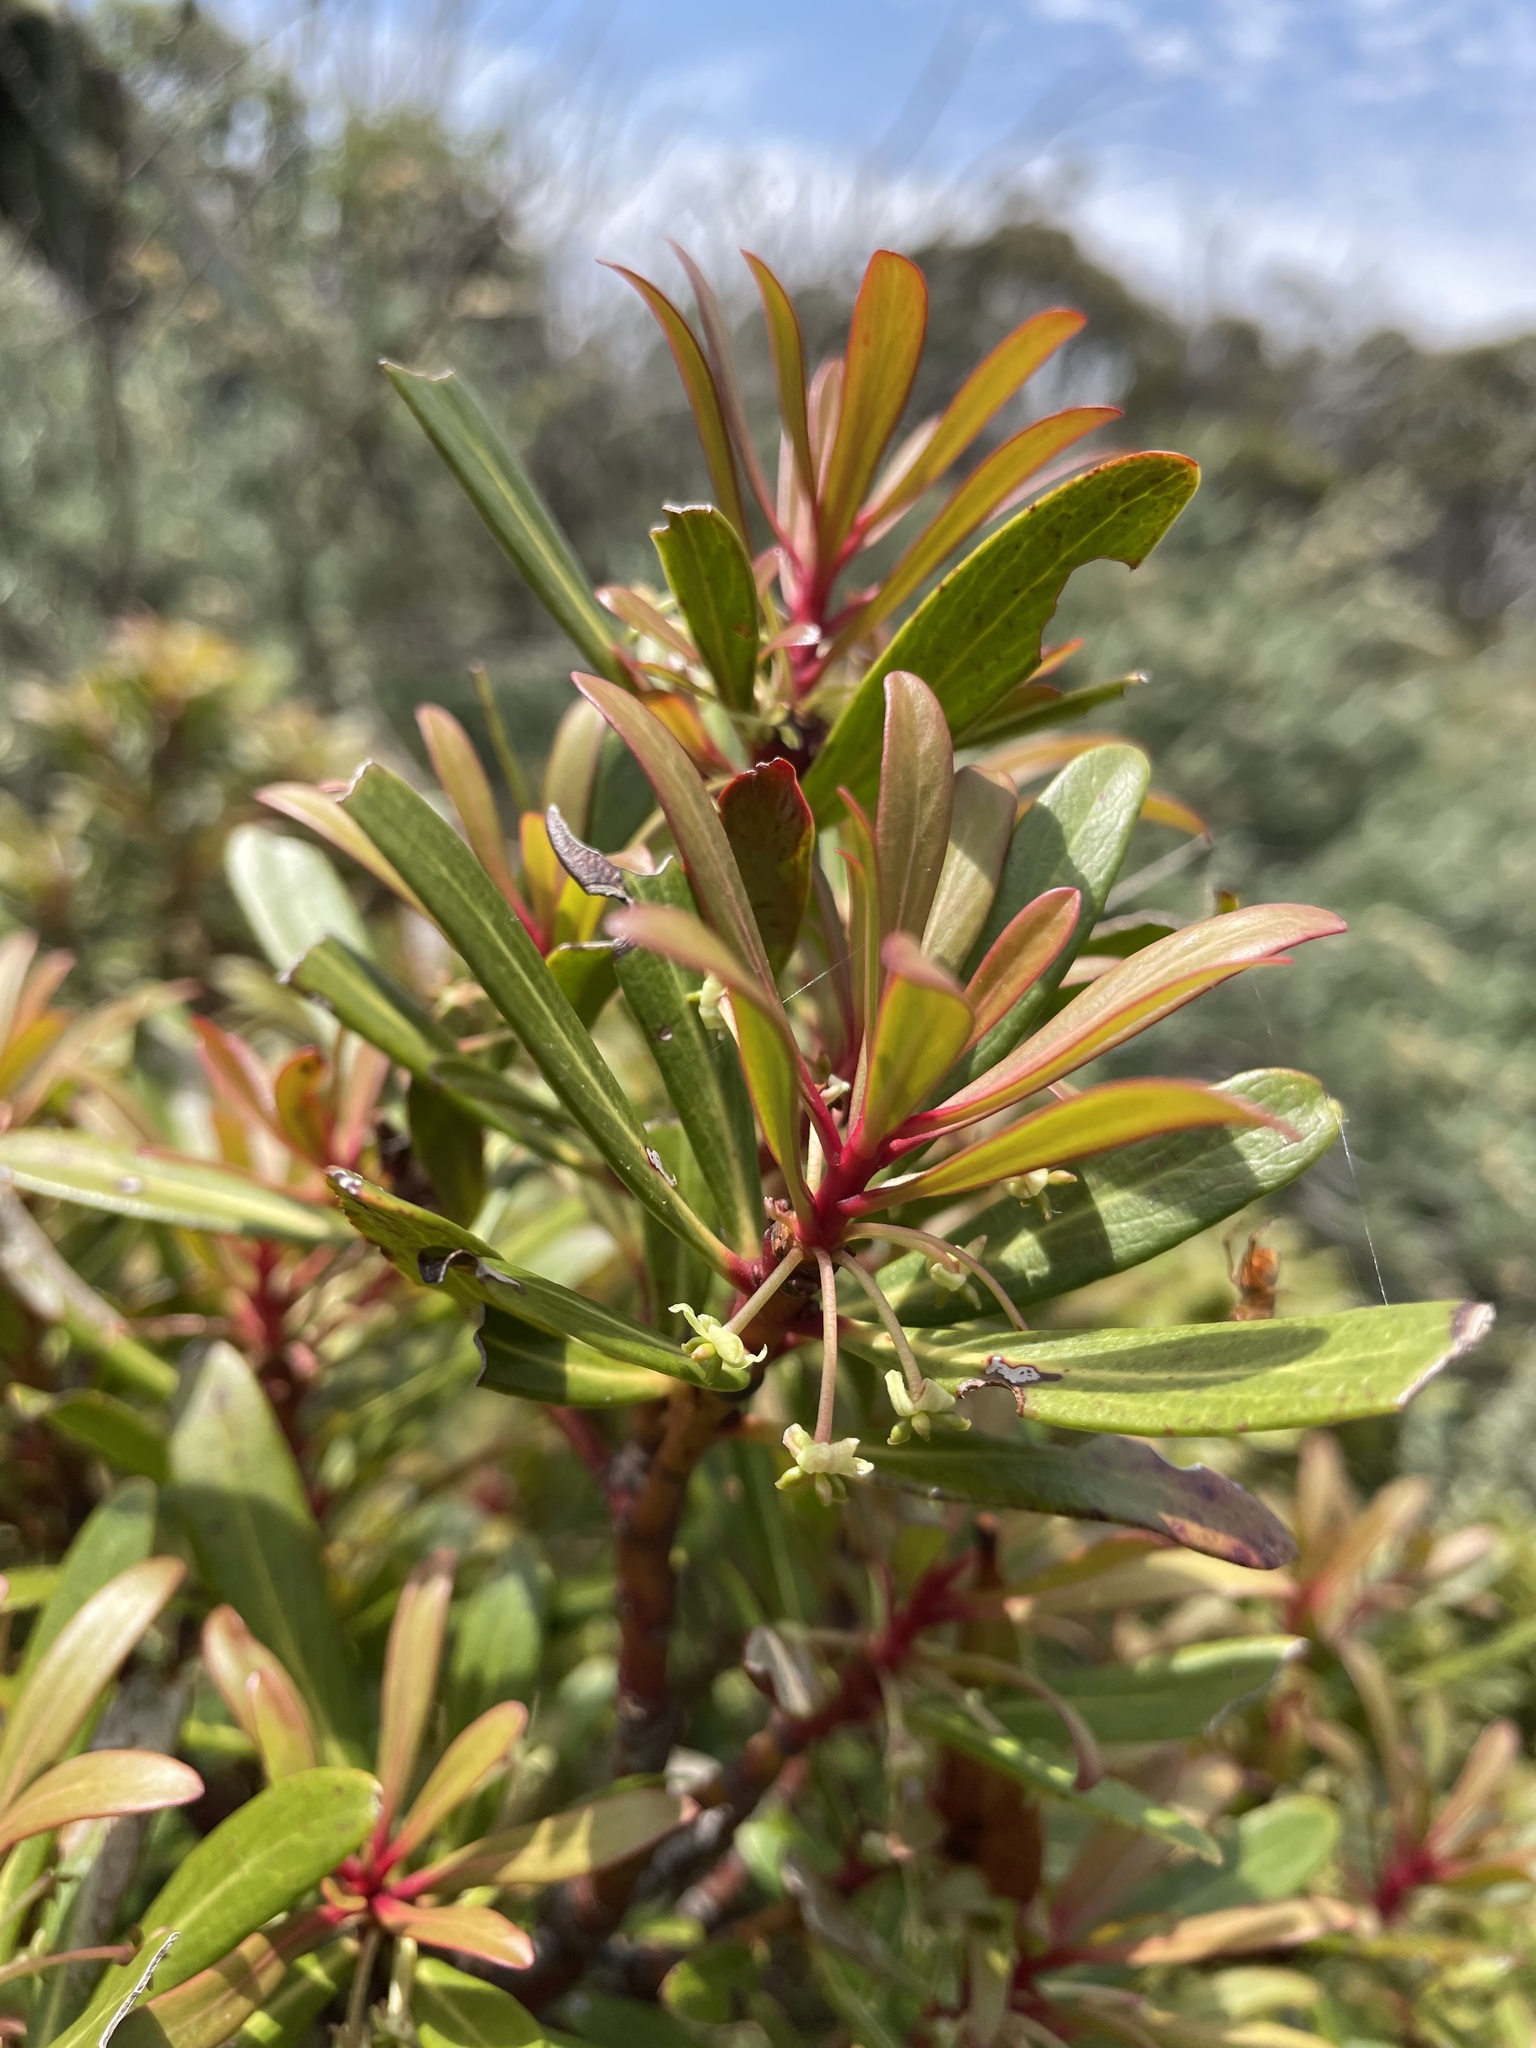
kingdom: Plantae
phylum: Tracheophyta
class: Magnoliopsida
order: Canellales
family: Winteraceae
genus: Drimys
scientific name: Drimys xerophila
